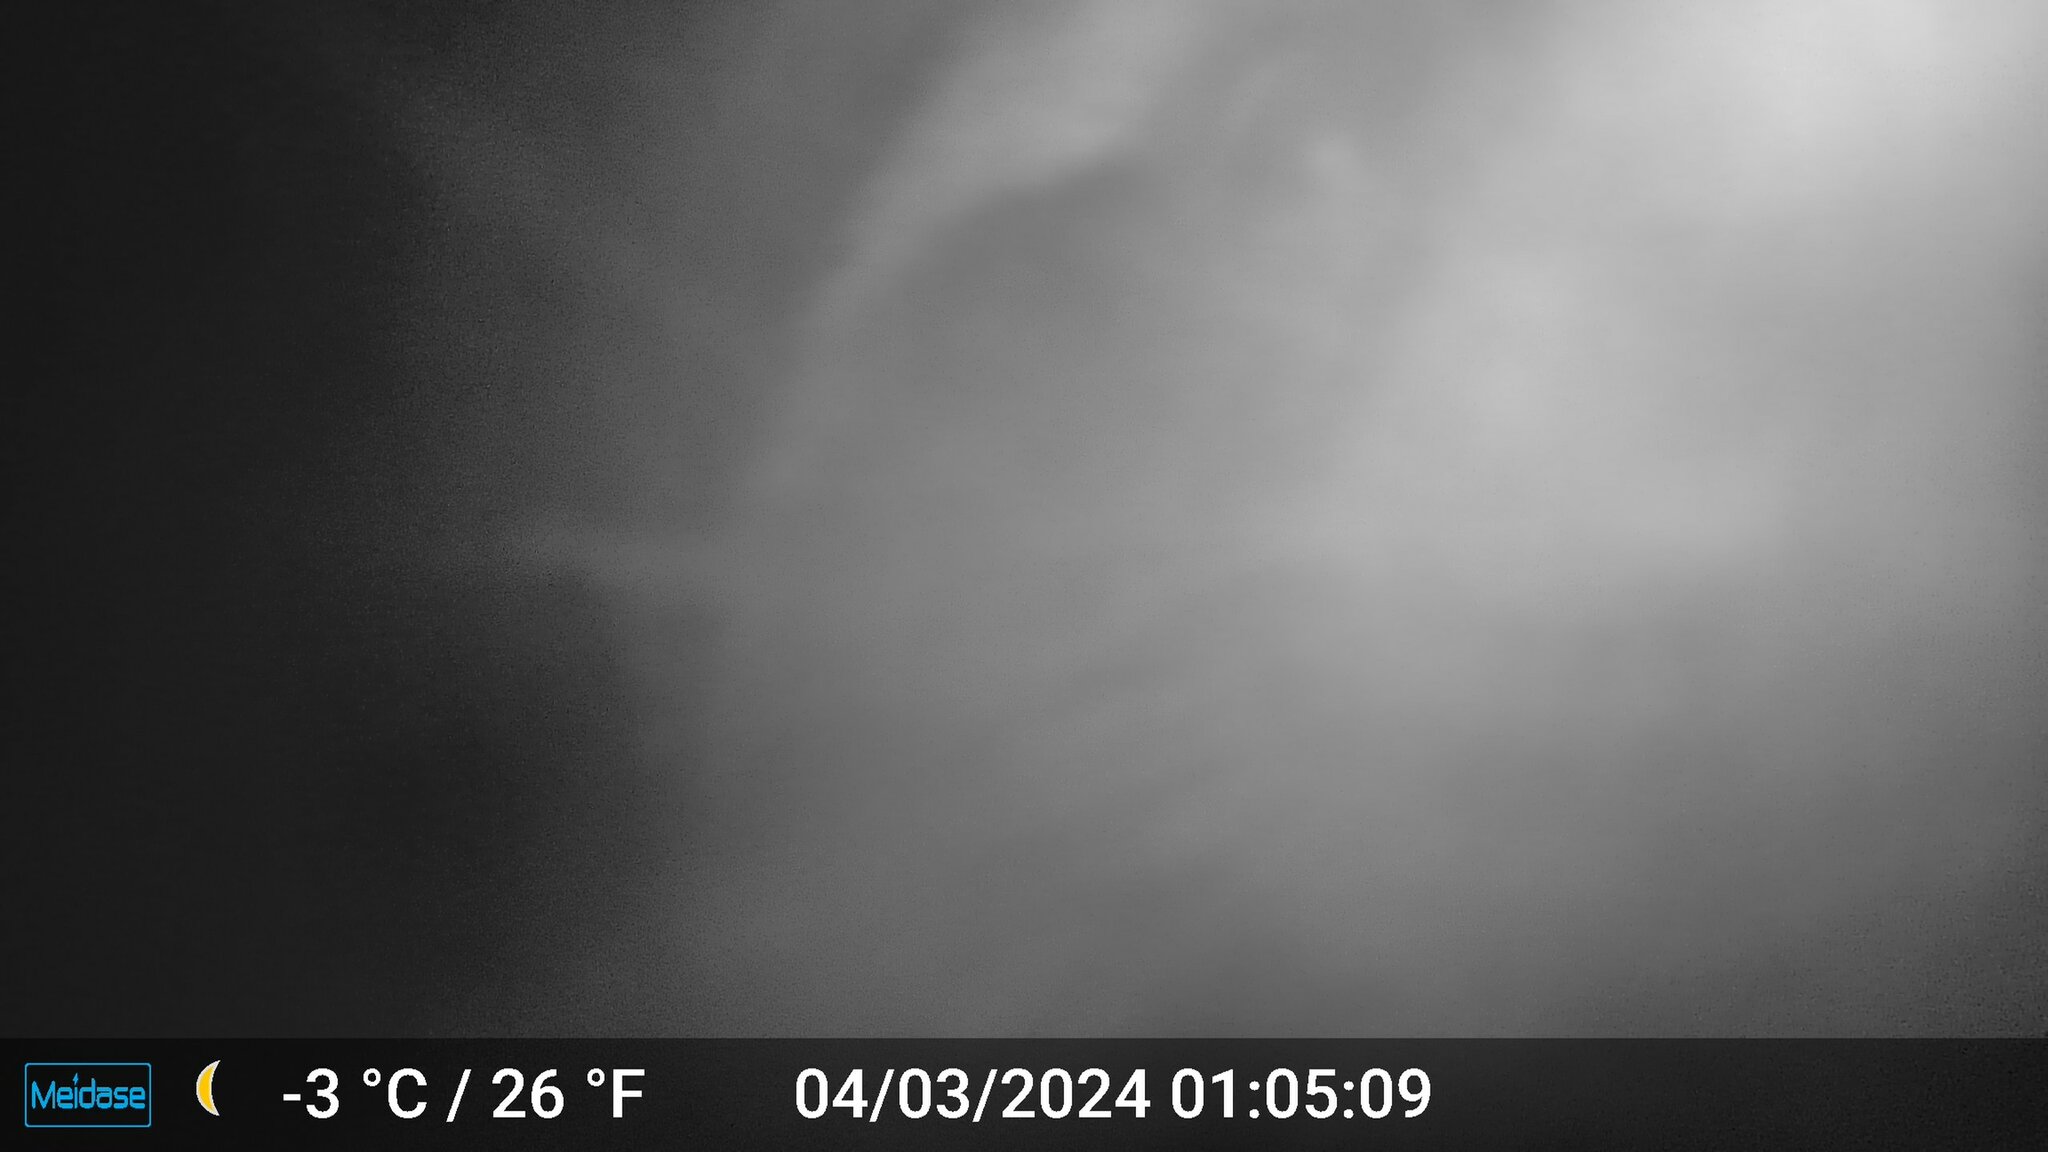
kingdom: Animalia
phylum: Chordata
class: Mammalia
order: Carnivora
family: Procyonidae
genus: Procyon
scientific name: Procyon lotor
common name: Raccoon
